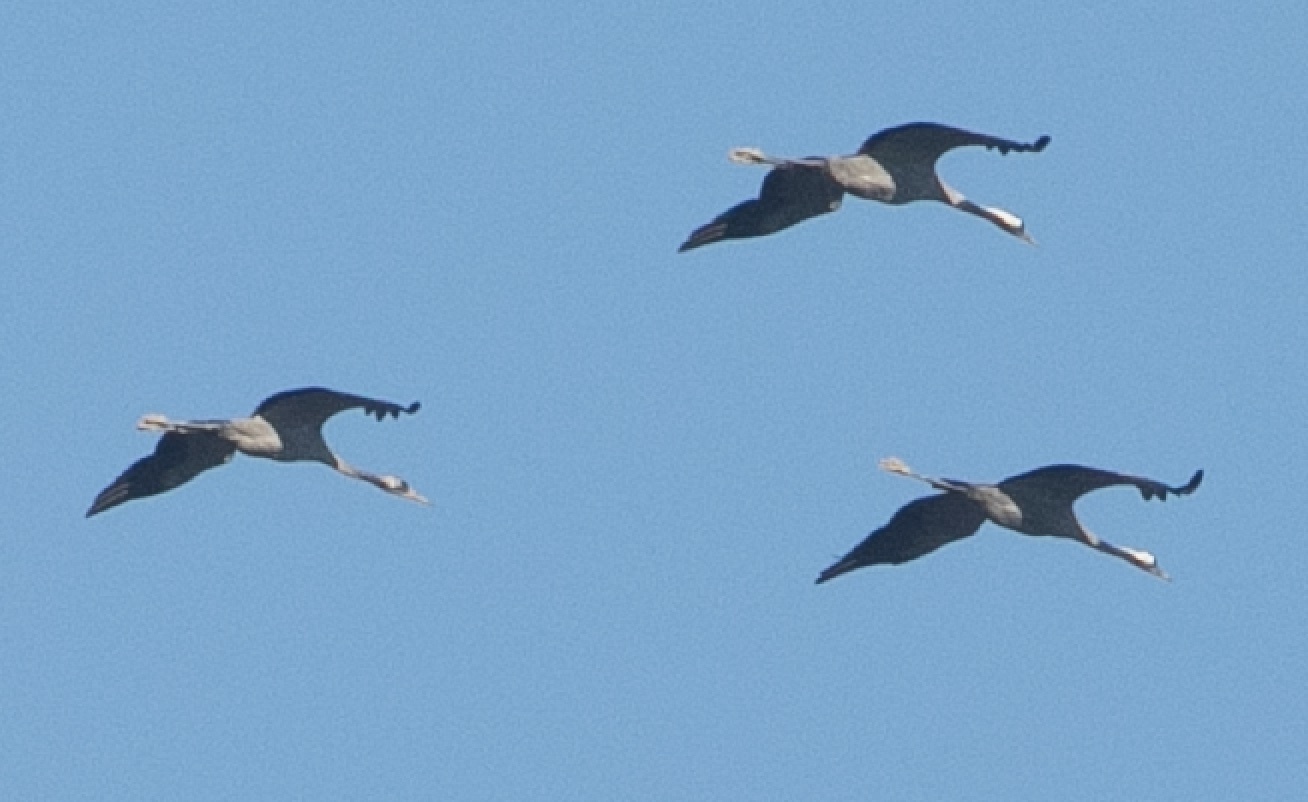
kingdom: Animalia
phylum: Chordata
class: Aves
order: Gruiformes
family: Gruidae
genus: Grus
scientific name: Grus grus
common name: Common crane
